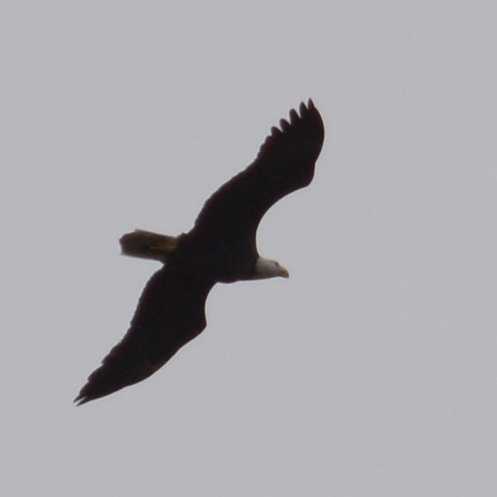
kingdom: Animalia
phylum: Chordata
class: Aves
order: Accipitriformes
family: Accipitridae
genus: Haliaeetus
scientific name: Haliaeetus leucocephalus
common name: Bald eagle
